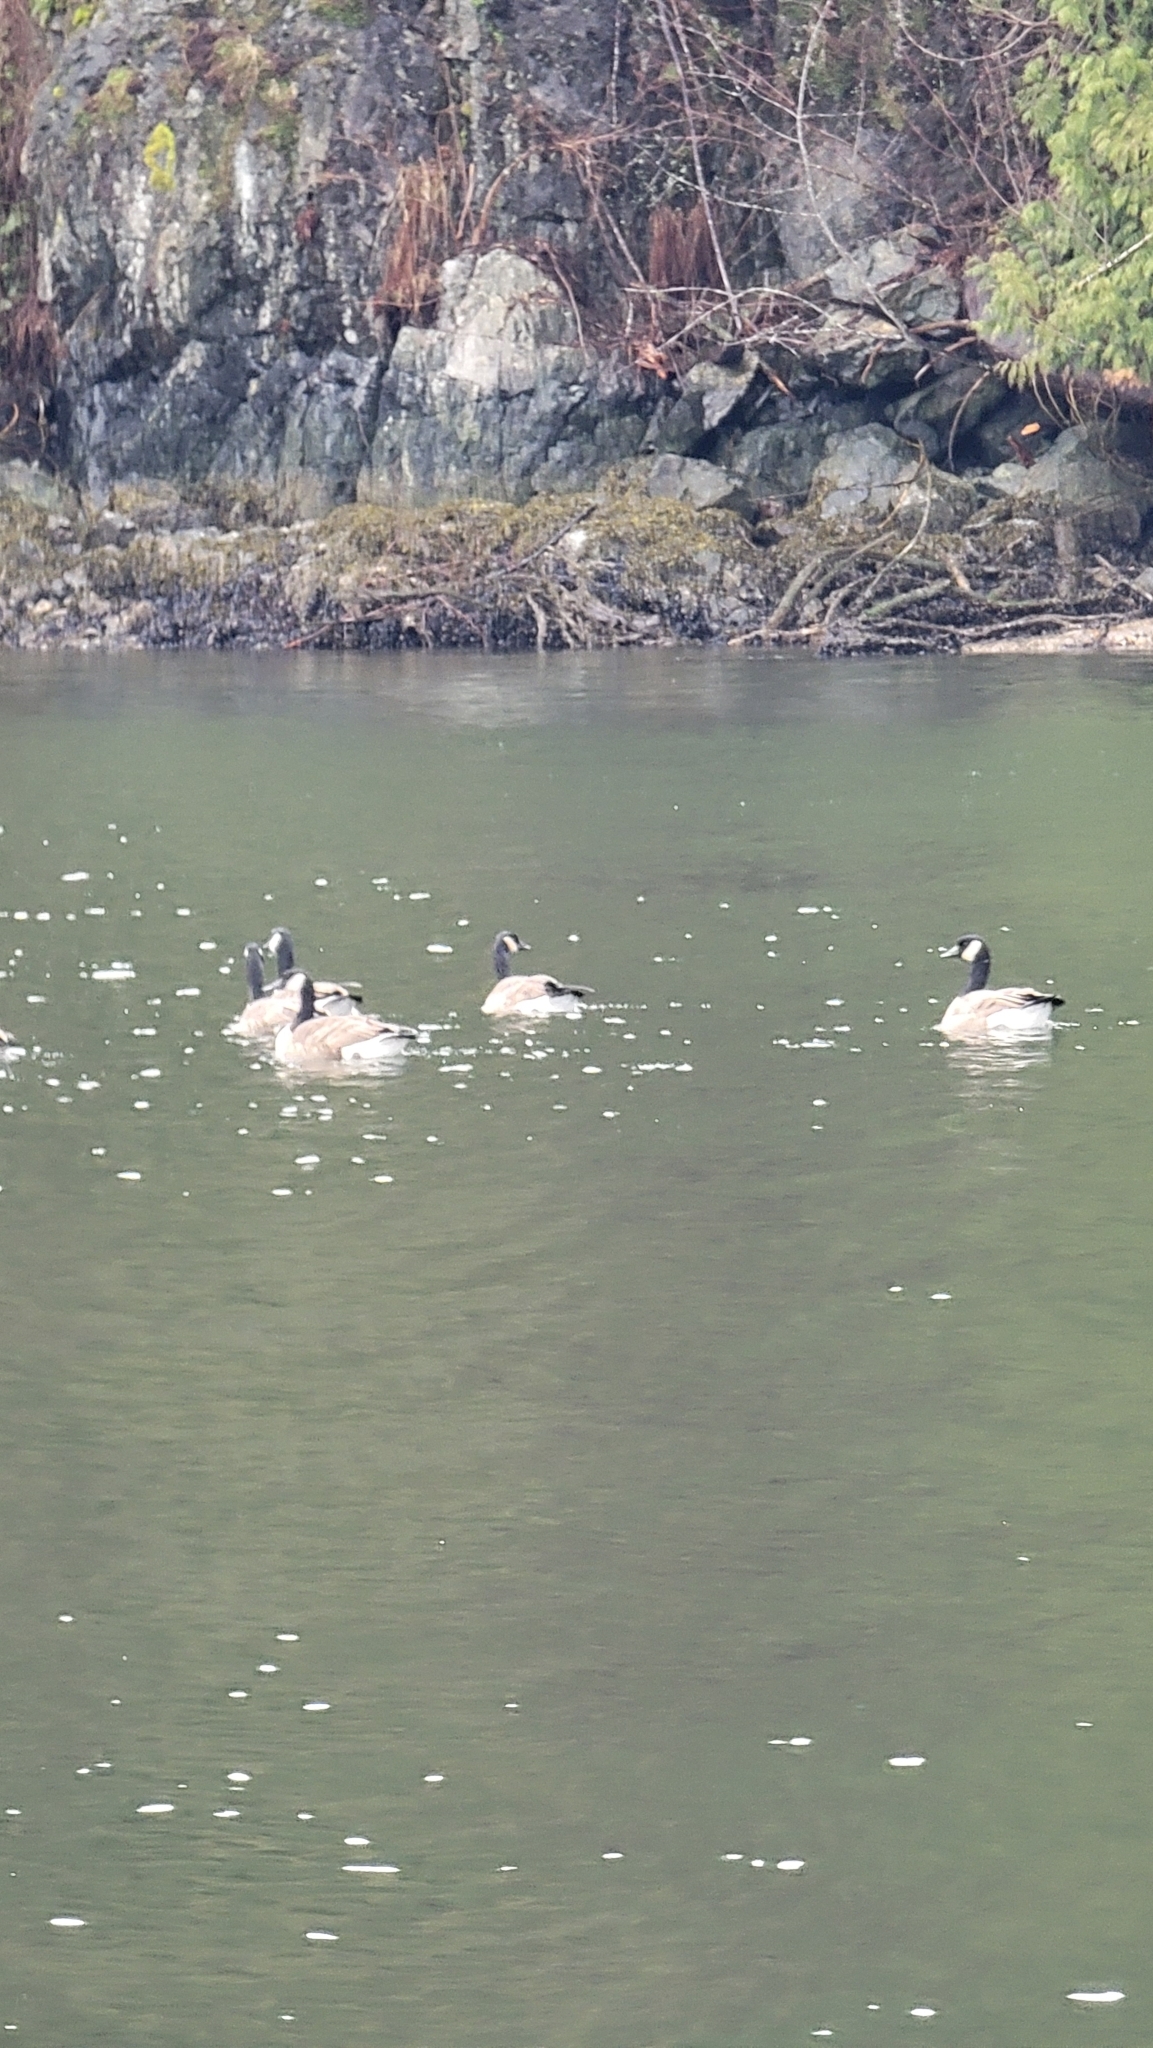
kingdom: Animalia
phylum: Chordata
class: Aves
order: Anseriformes
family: Anatidae
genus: Branta
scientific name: Branta canadensis
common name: Canada goose
